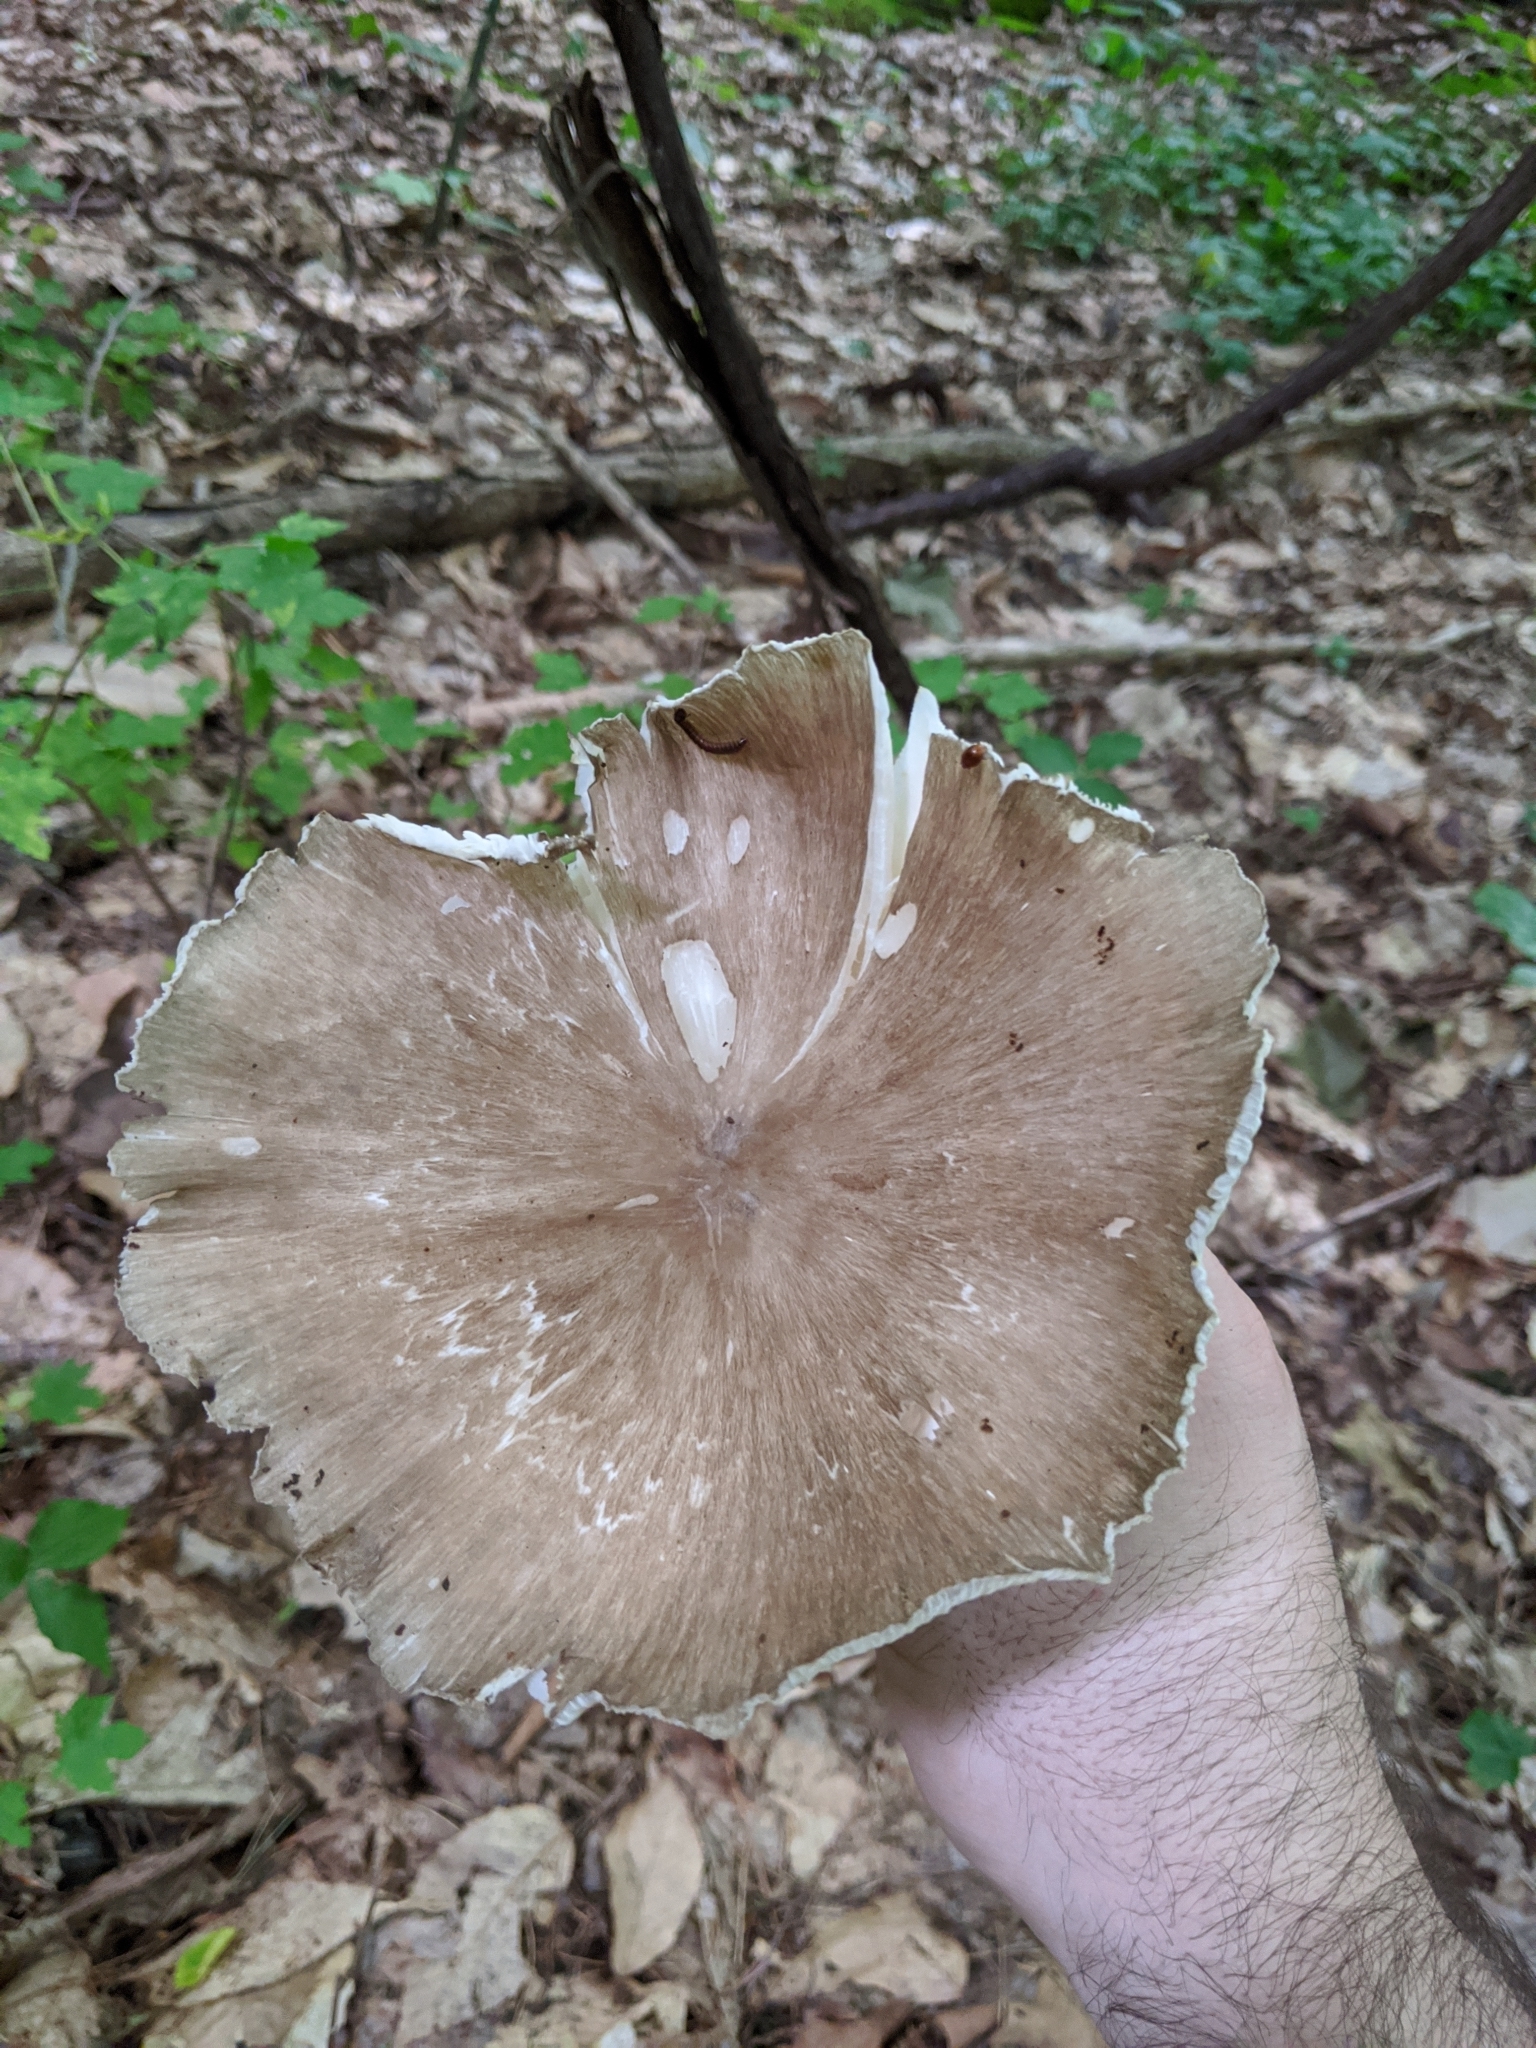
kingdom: Fungi
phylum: Basidiomycota
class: Agaricomycetes
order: Agaricales
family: Tricholomataceae
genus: Megacollybia
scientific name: Megacollybia rodmanii
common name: Eastern american platterful mushroom
